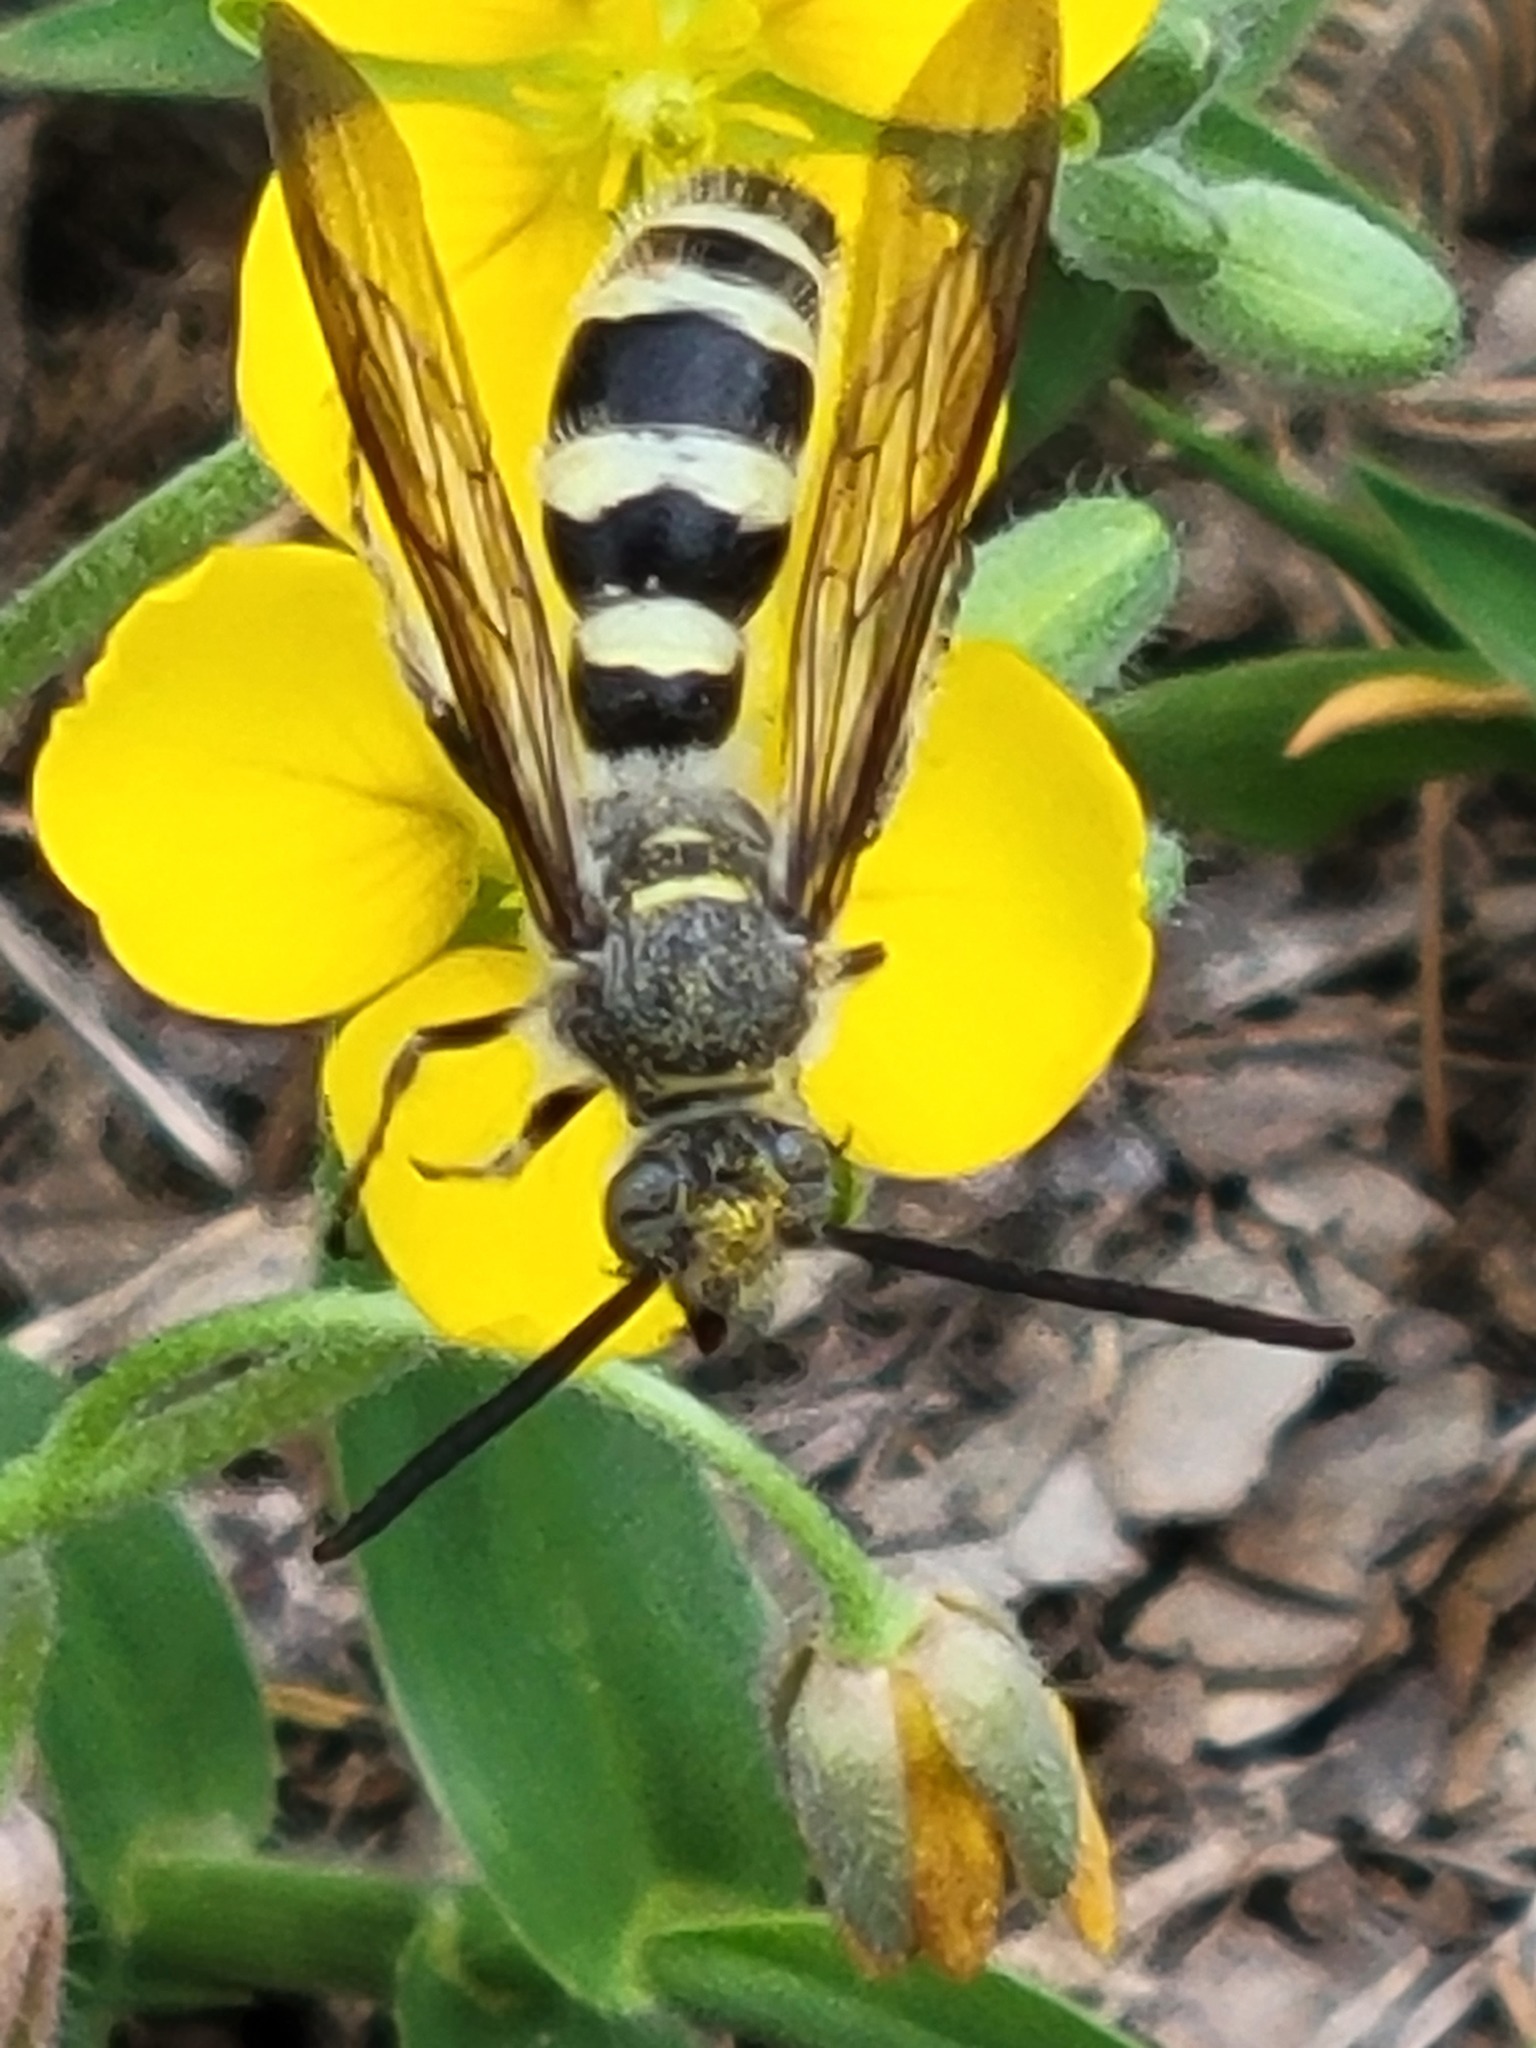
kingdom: Animalia
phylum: Arthropoda
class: Insecta
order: Hymenoptera
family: Scoliidae
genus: Dielis
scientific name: Dielis tolteca
